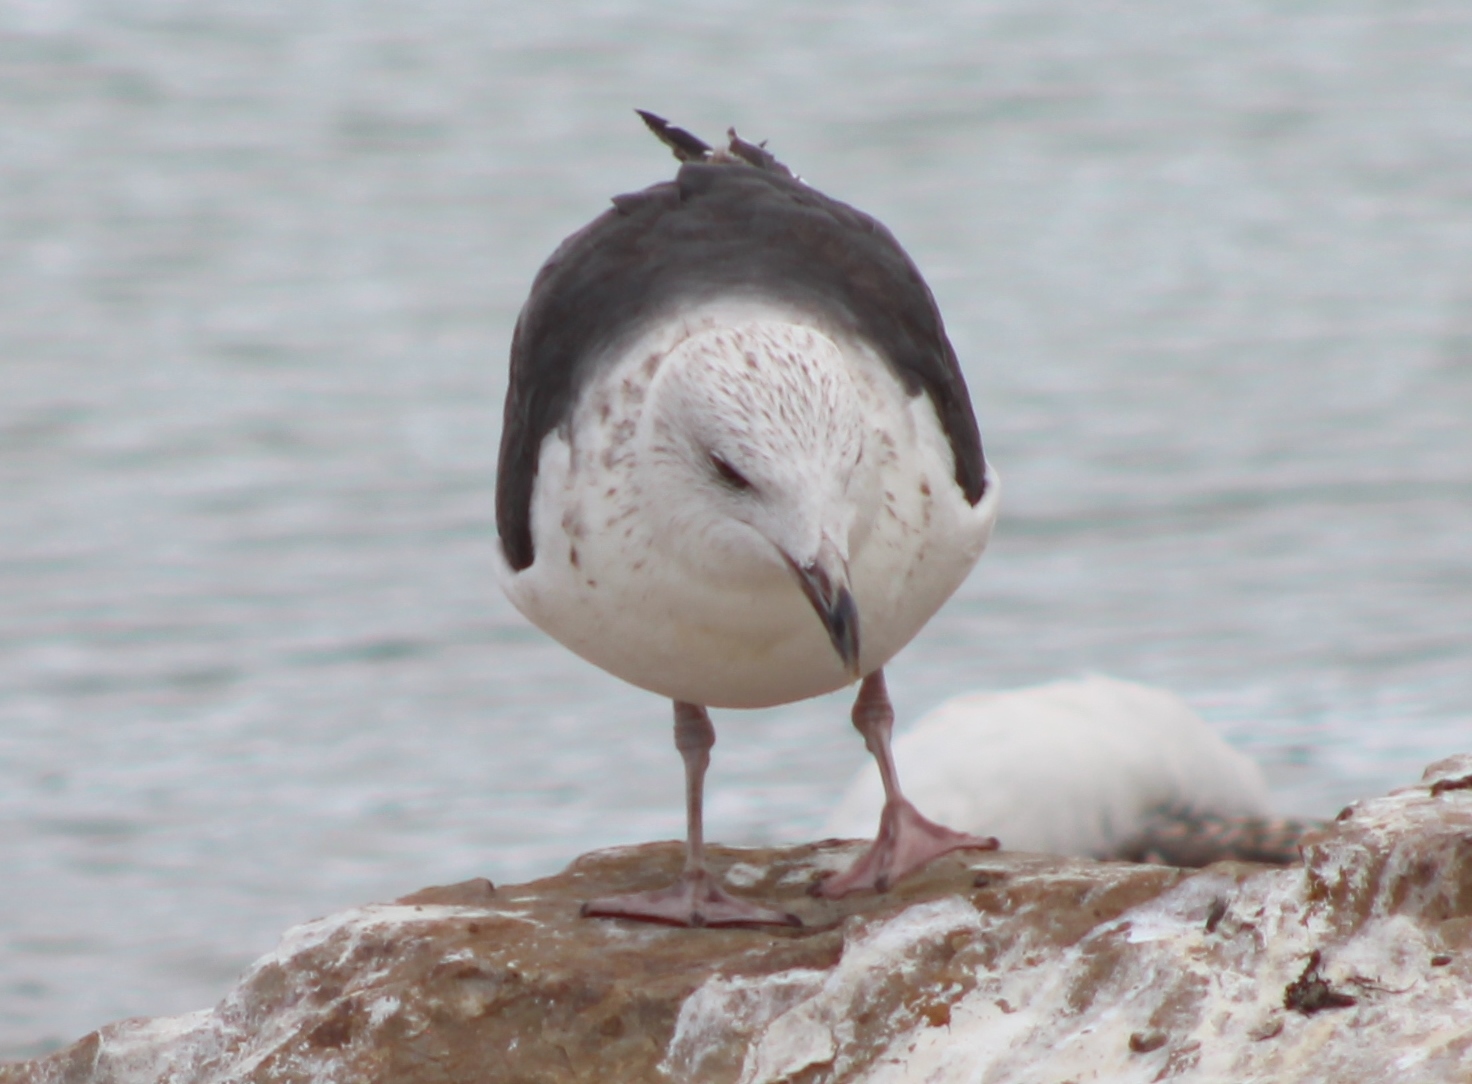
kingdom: Animalia
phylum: Chordata
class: Aves
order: Charadriiformes
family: Laridae
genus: Larus
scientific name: Larus marinus
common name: Great black-backed gull
